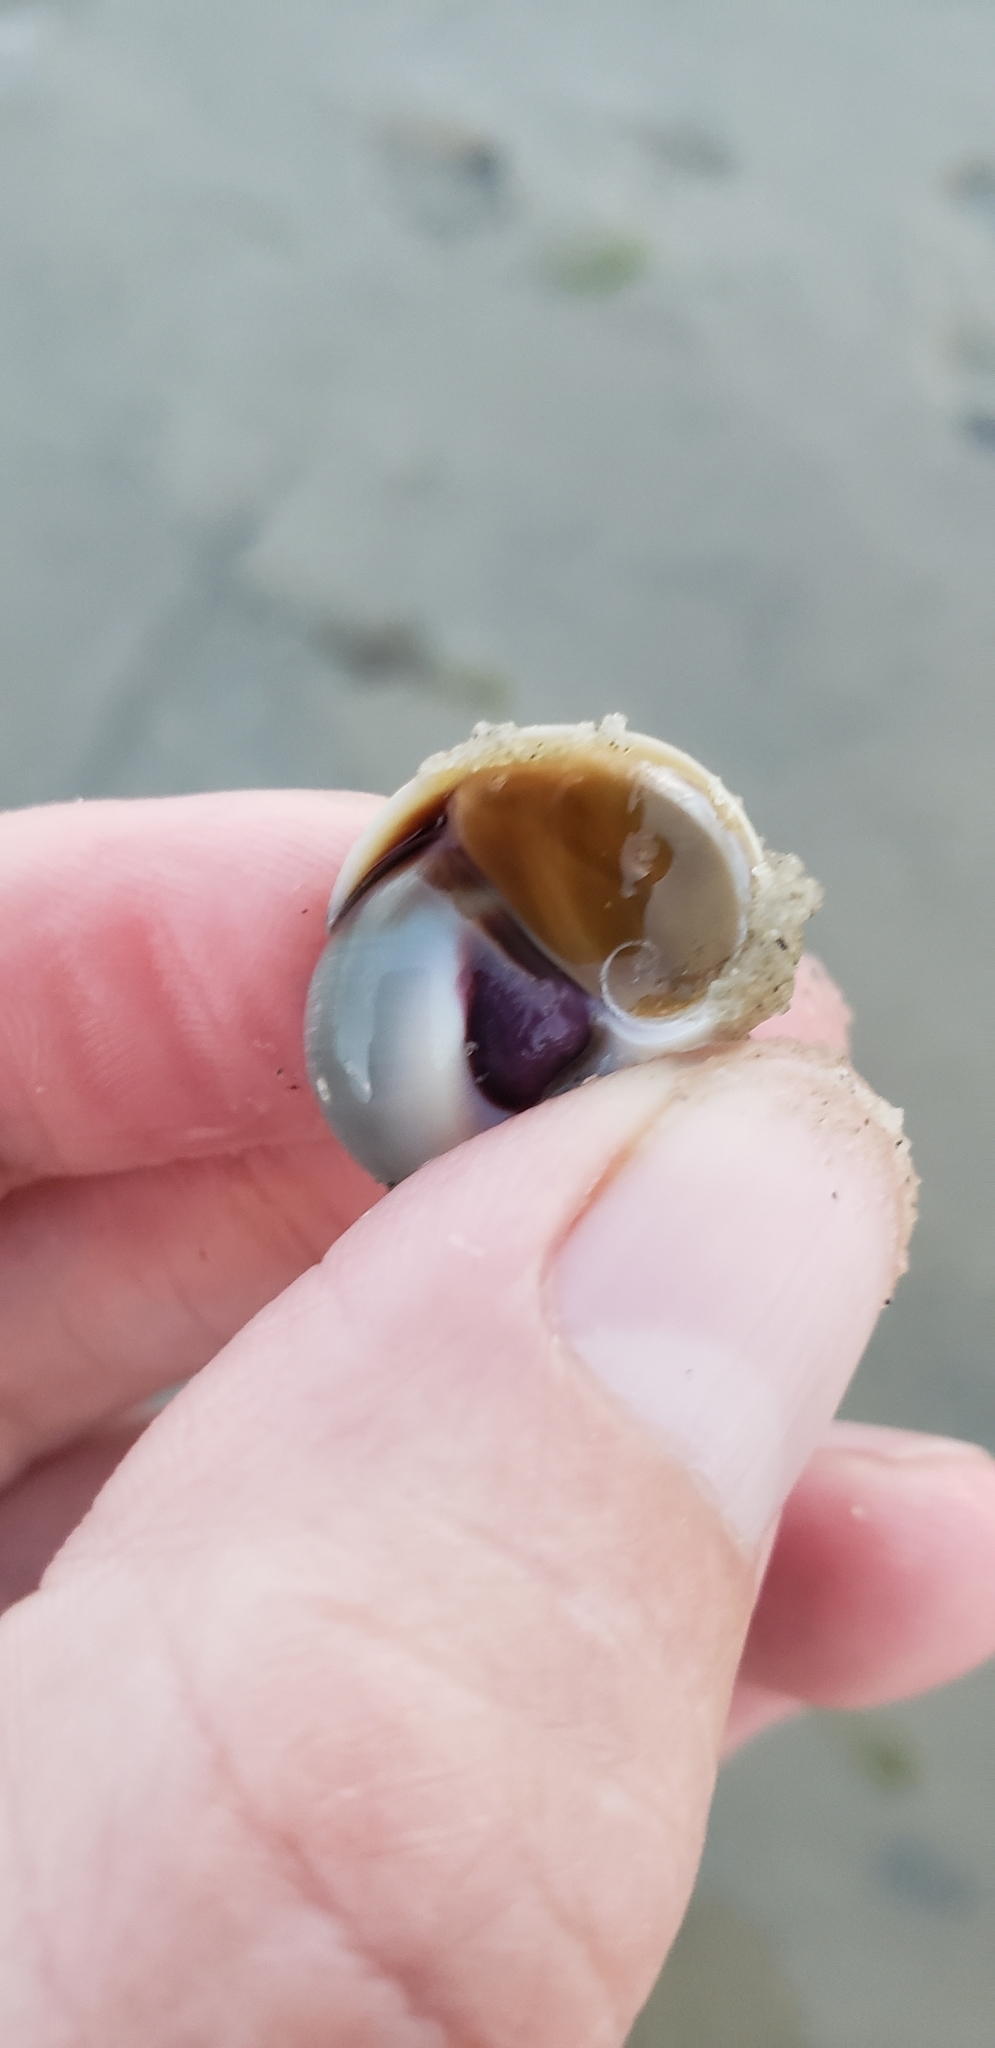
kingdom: Animalia
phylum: Mollusca
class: Gastropoda
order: Littorinimorpha
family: Naticidae
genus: Neverita
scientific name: Neverita duplicata
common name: Lobed moonsnail
